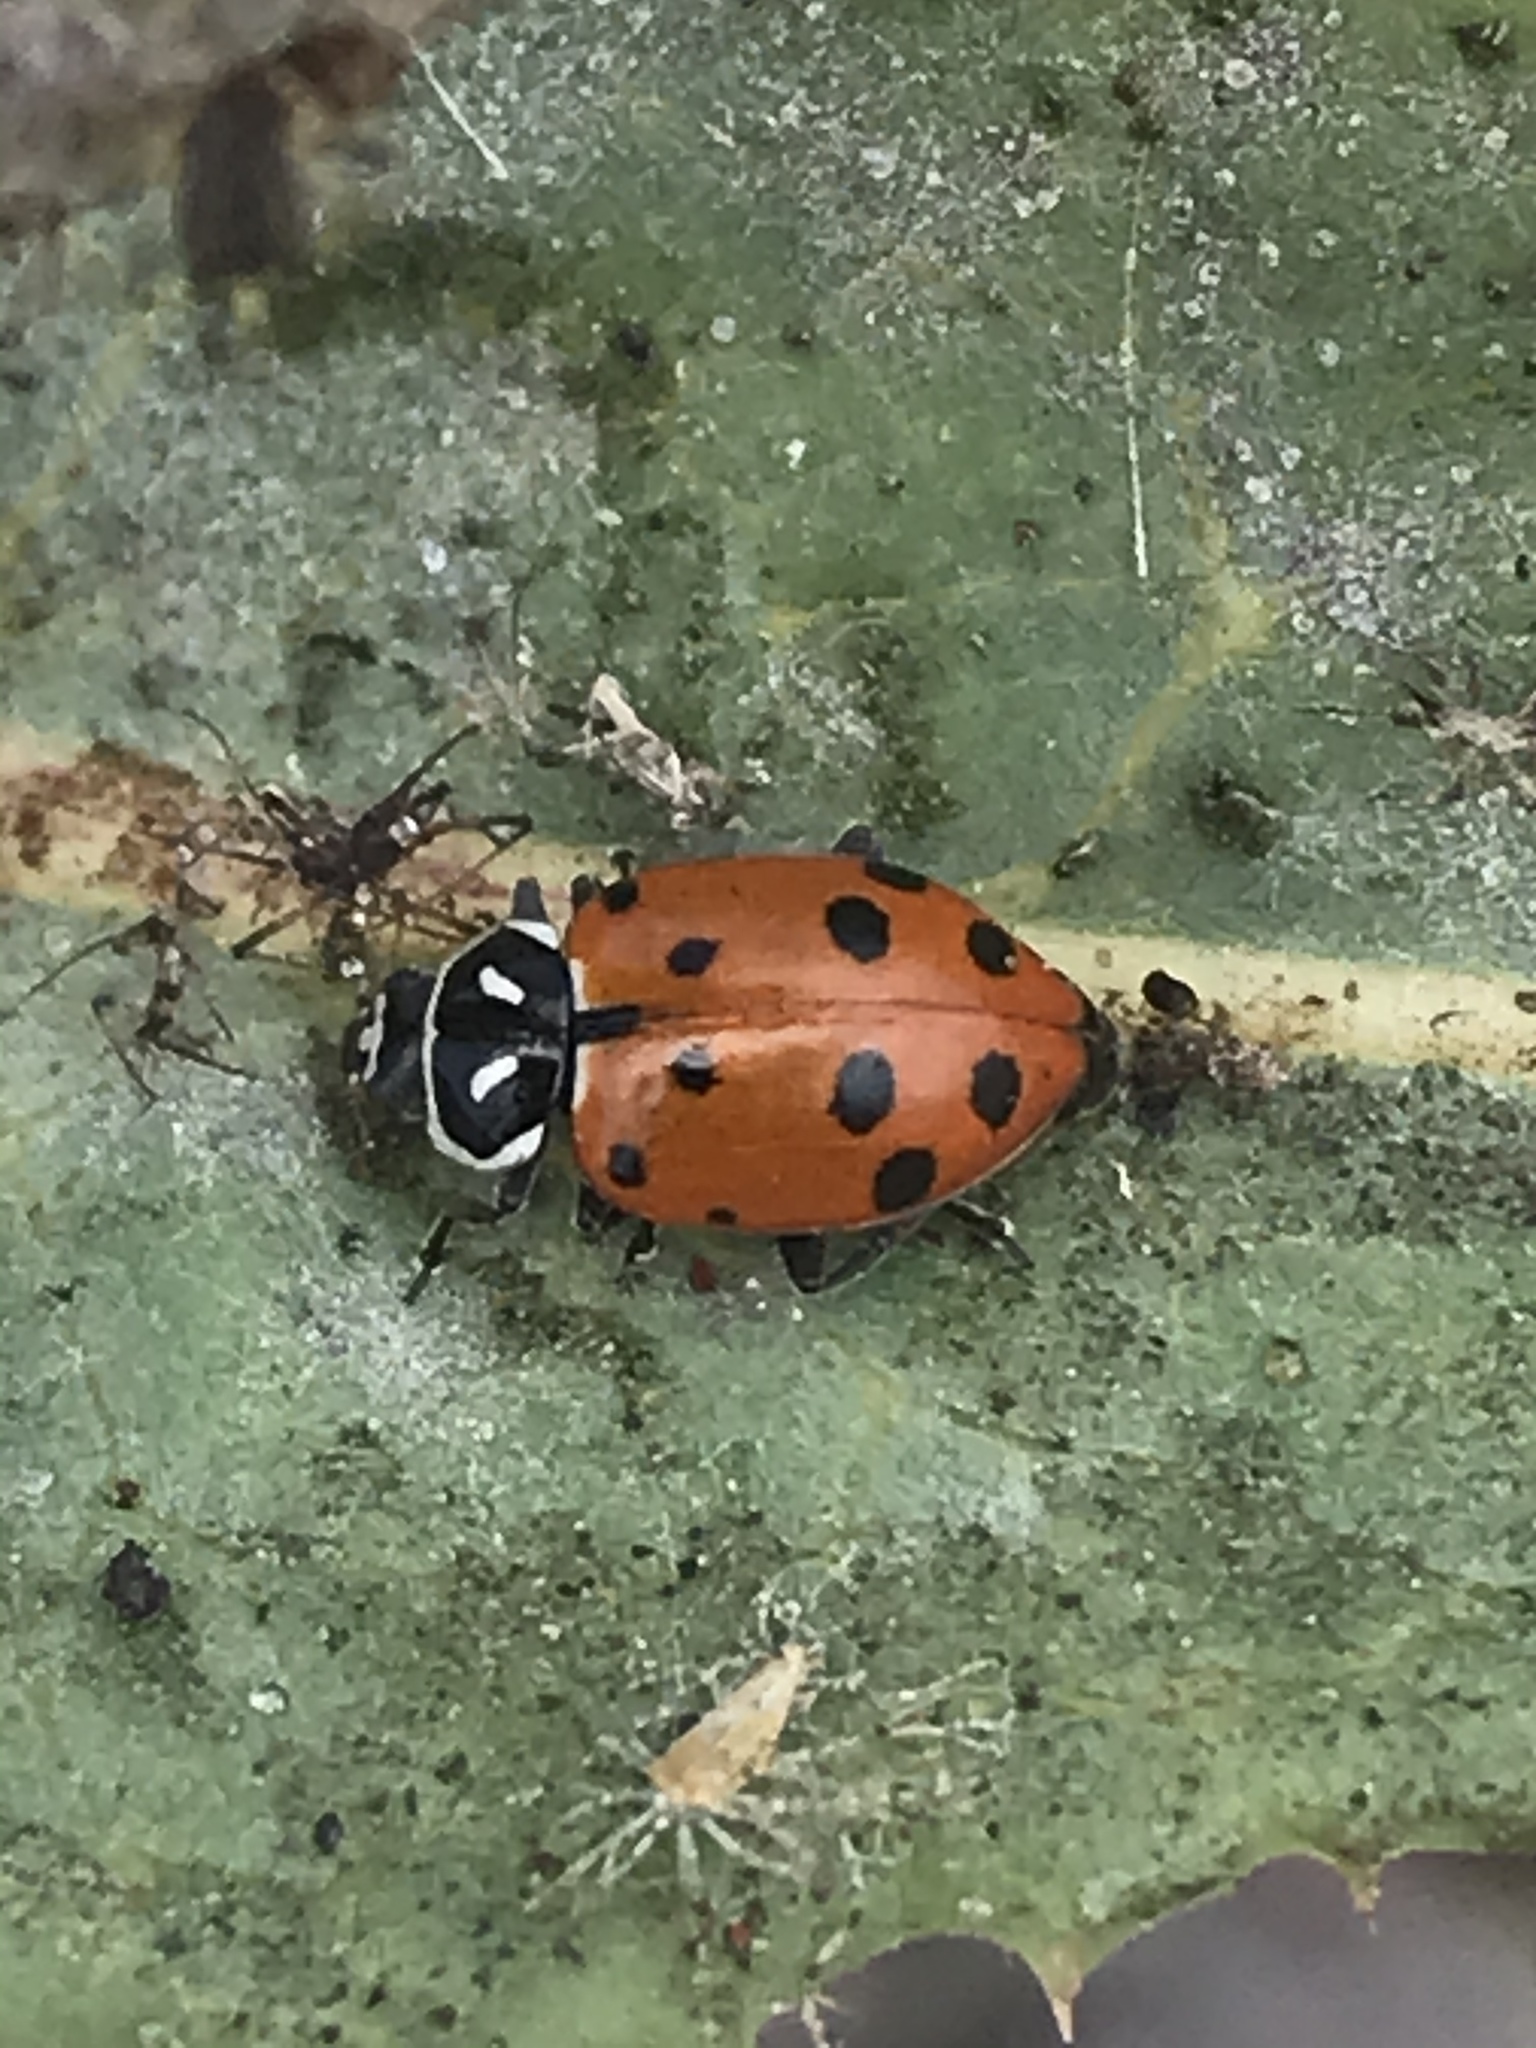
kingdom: Animalia
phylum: Arthropoda
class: Insecta
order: Coleoptera
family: Coccinellidae
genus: Hippodamia
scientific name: Hippodamia convergens
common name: Convergent lady beetle
